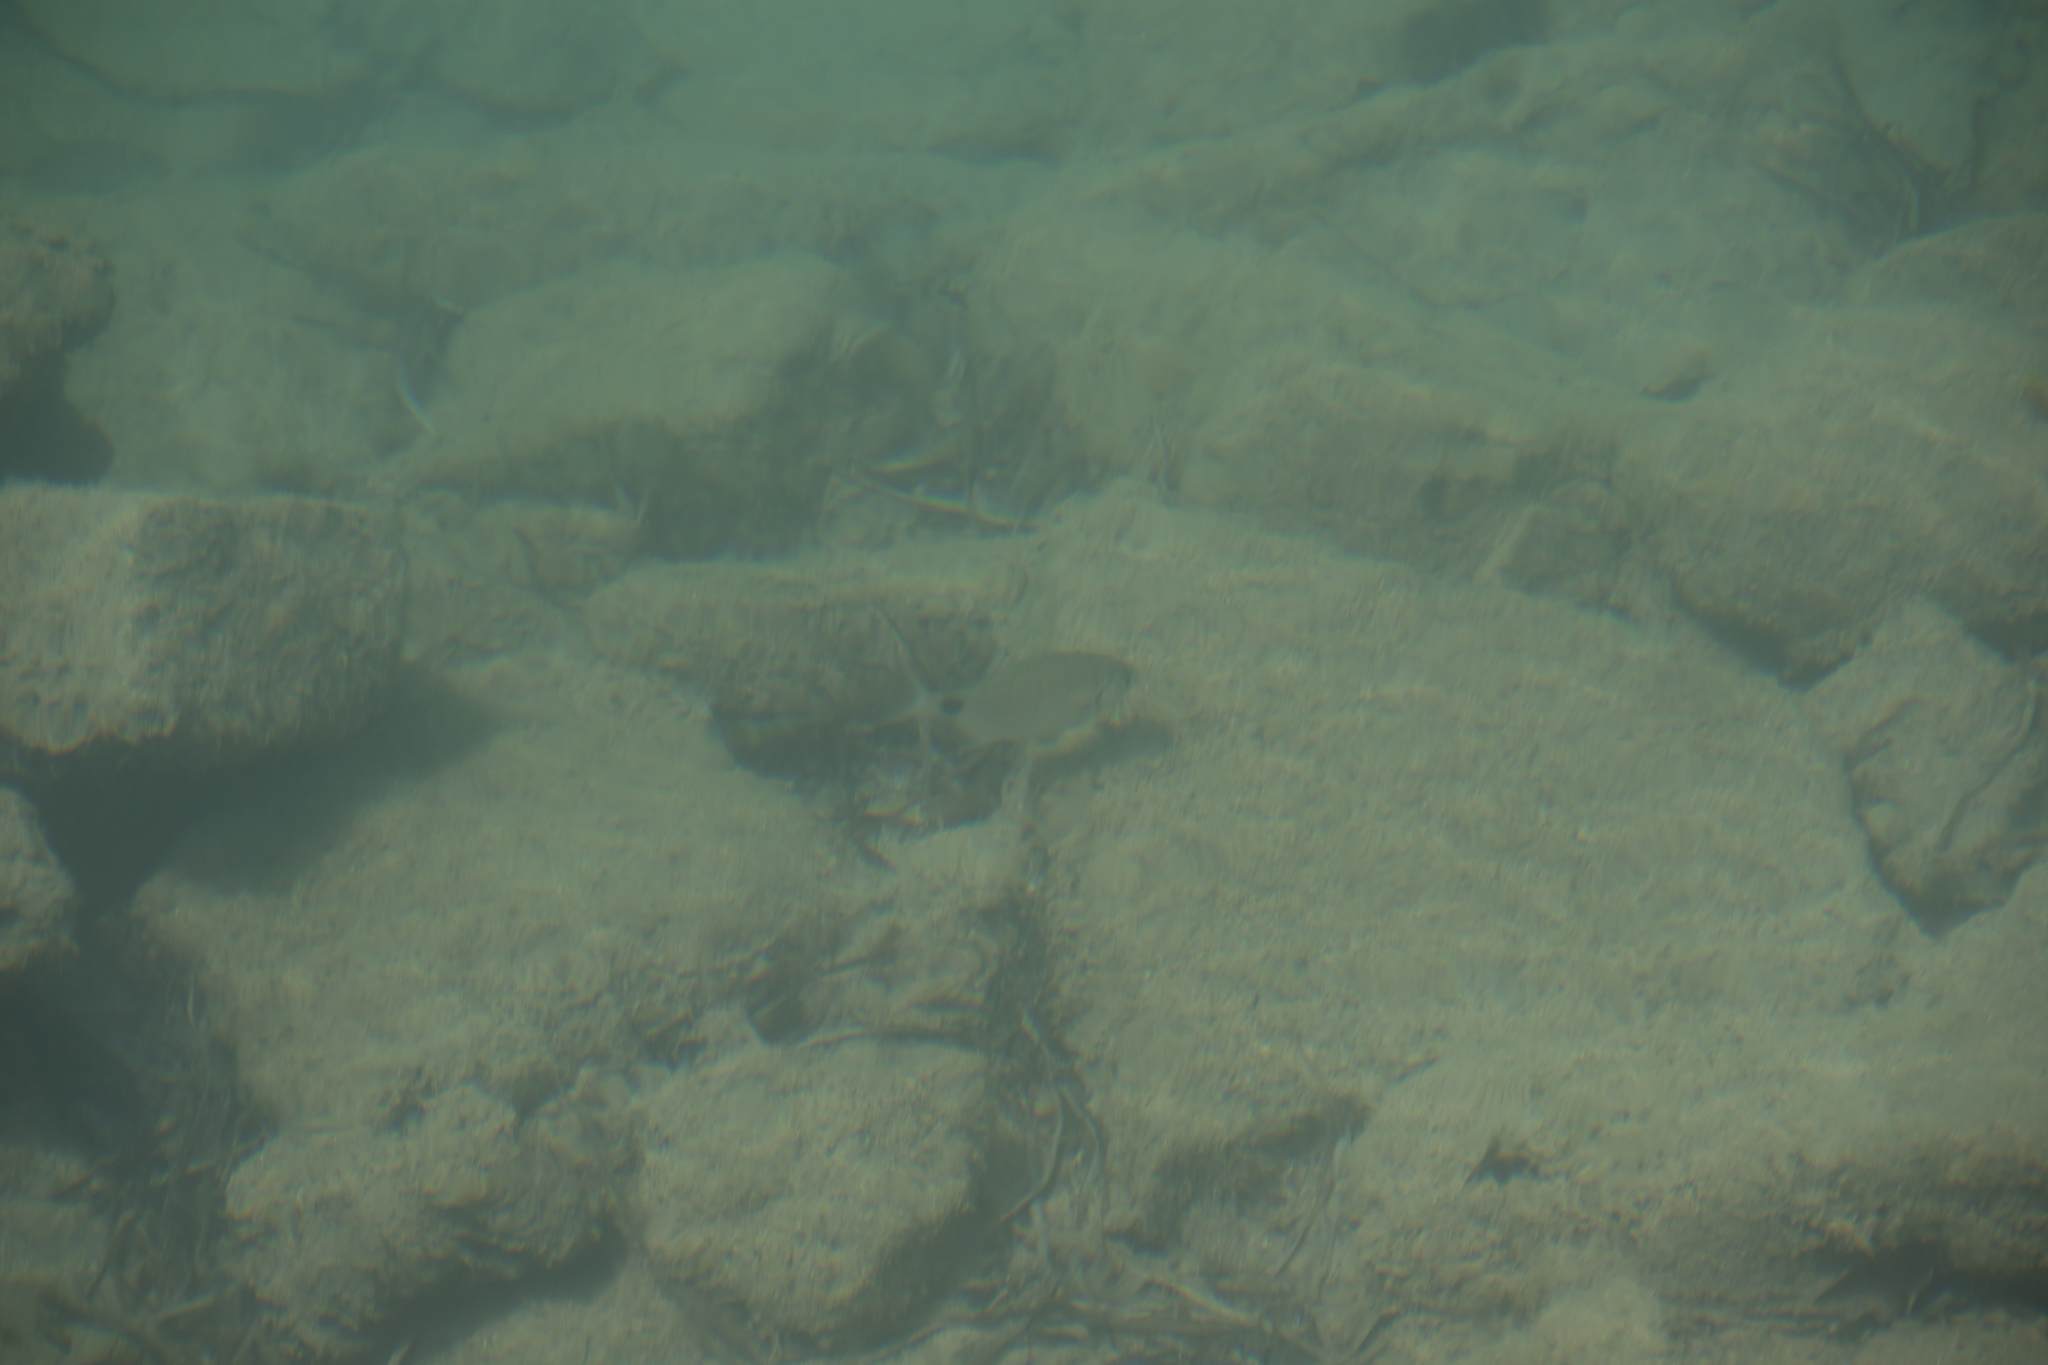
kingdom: Animalia
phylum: Chordata
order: Perciformes
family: Sparidae
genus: Diplodus
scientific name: Diplodus sargus
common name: White seabream
